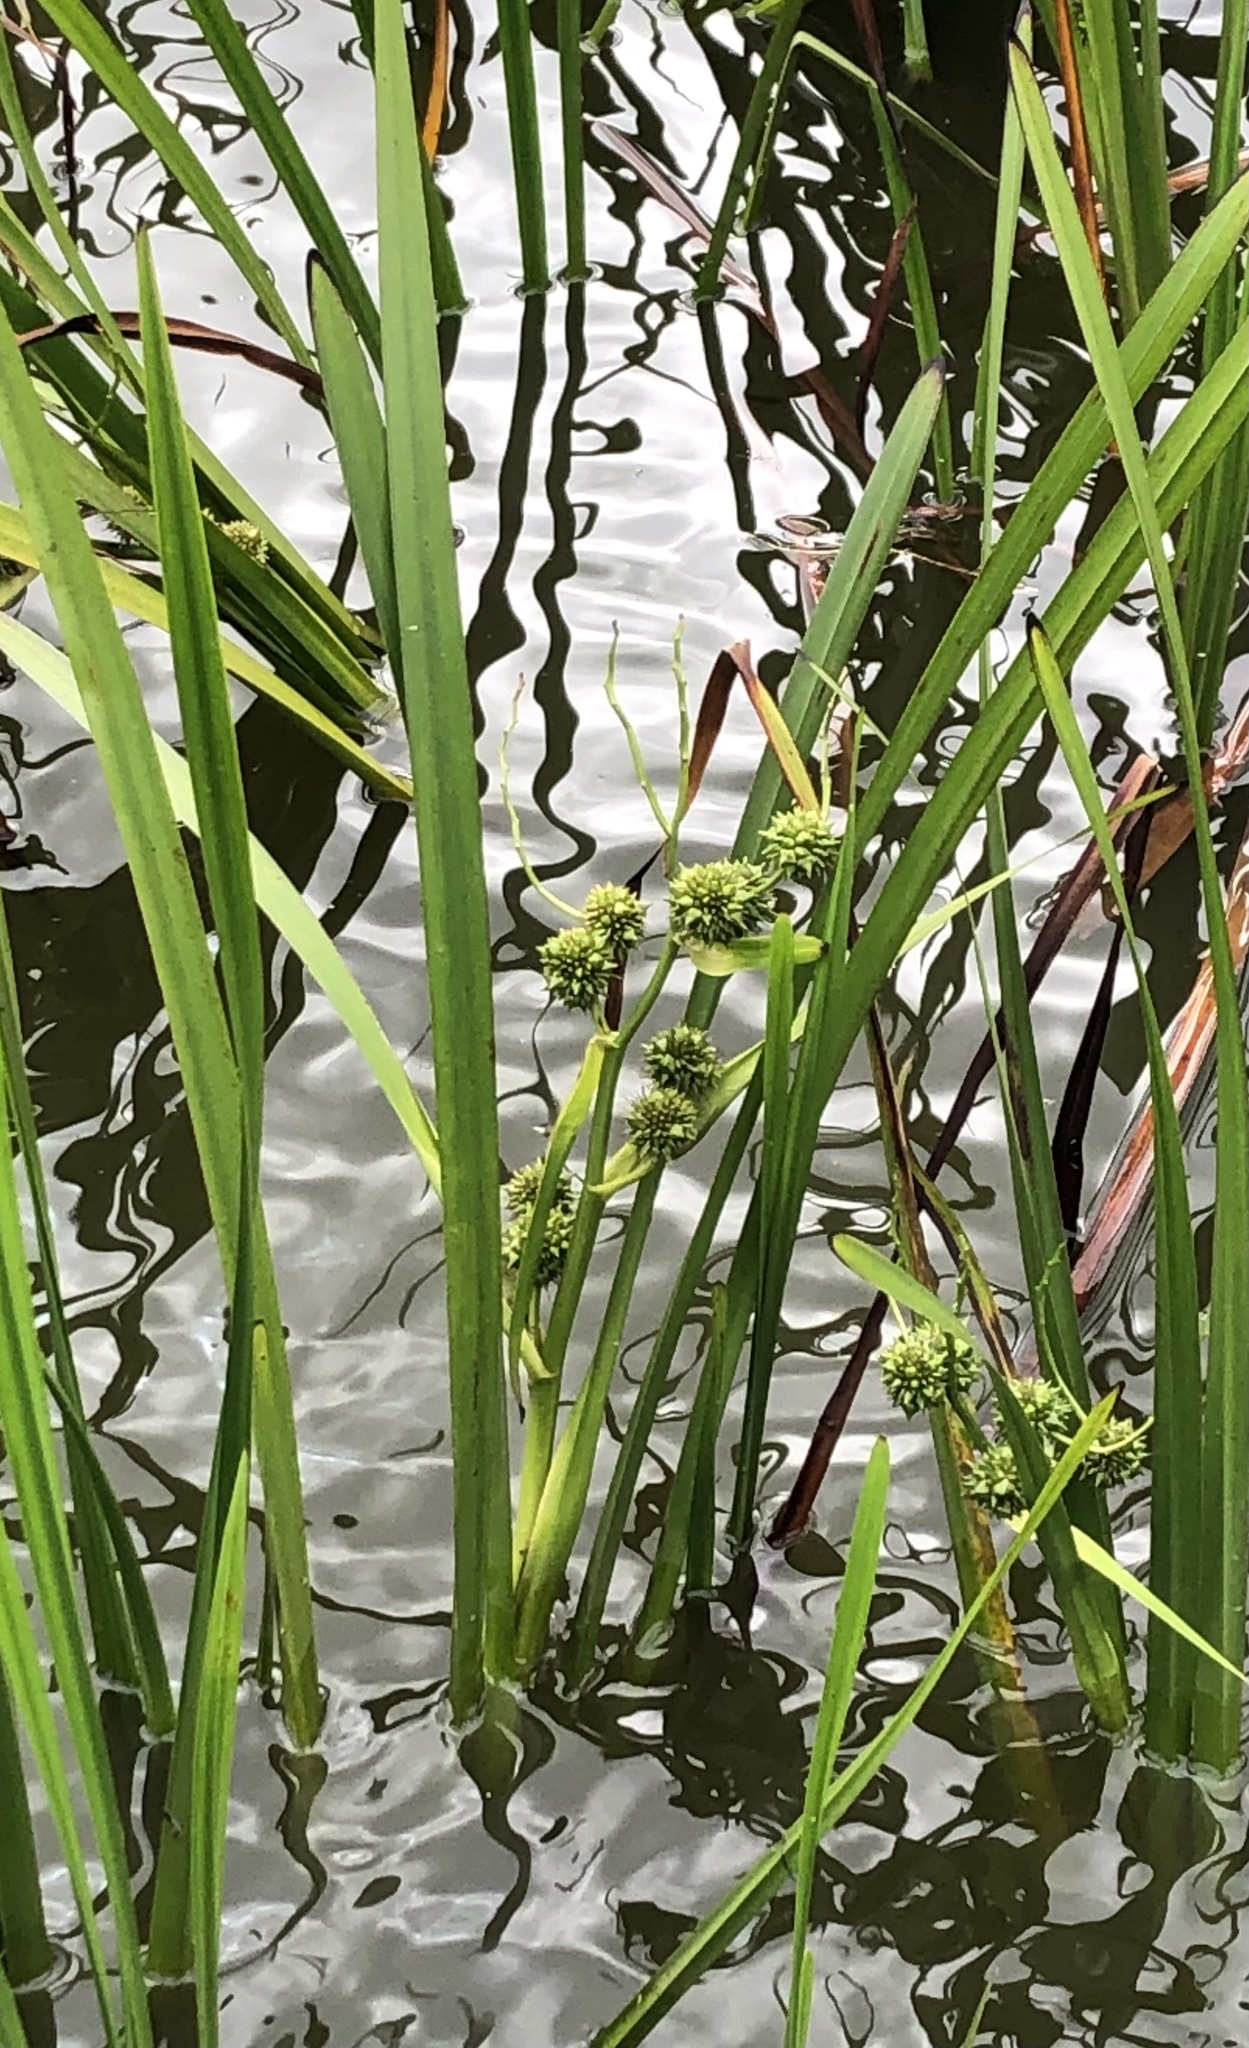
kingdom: Plantae
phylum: Tracheophyta
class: Liliopsida
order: Poales
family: Typhaceae
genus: Sparganium
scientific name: Sparganium erectum
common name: Branched bur-reed
